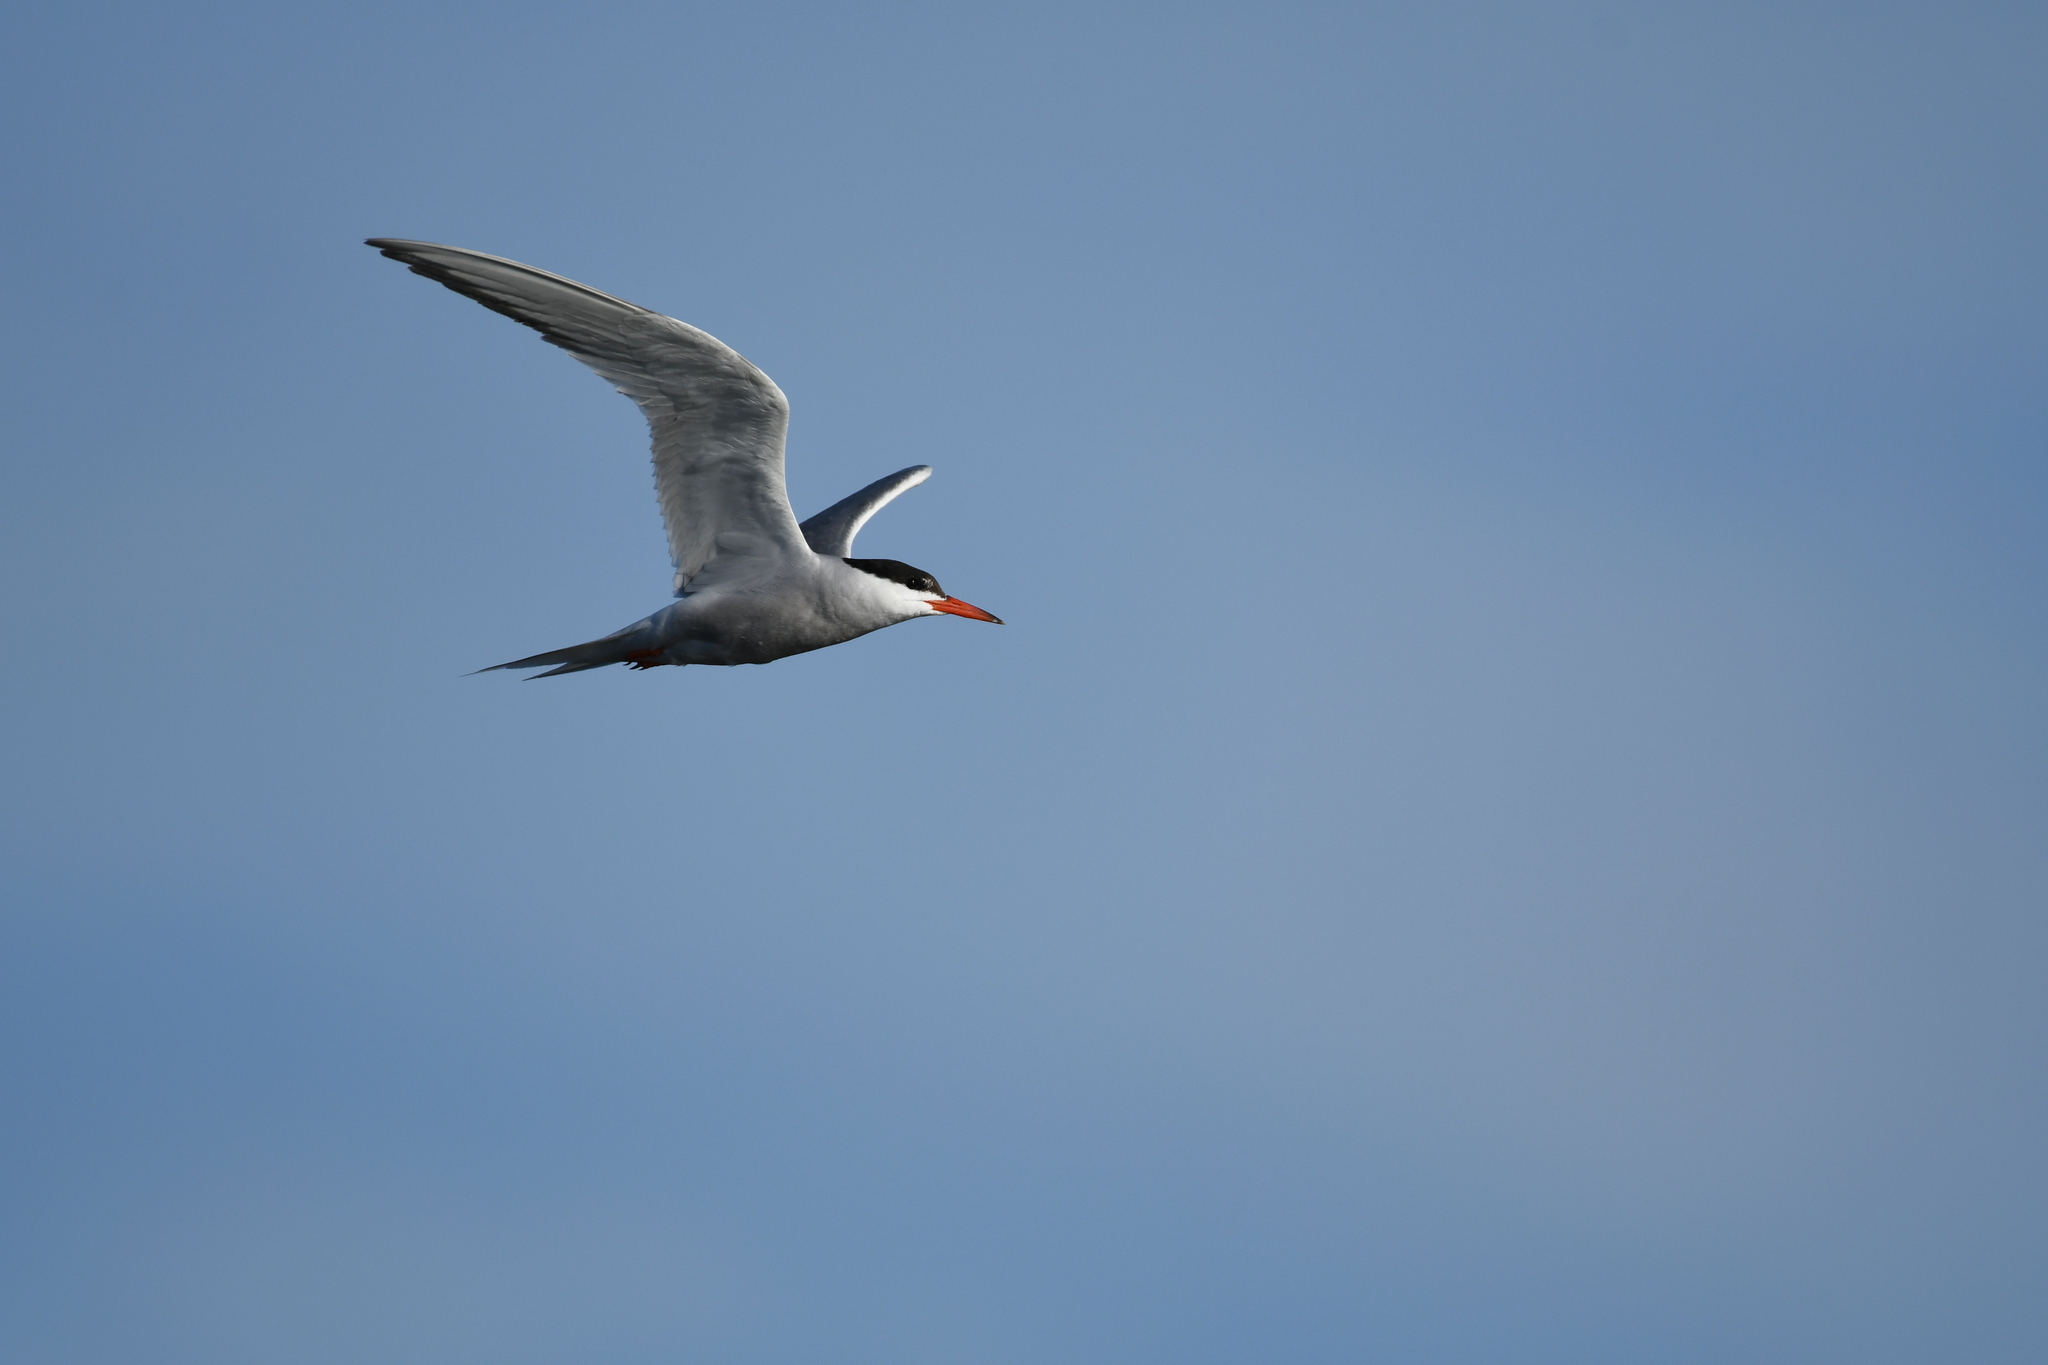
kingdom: Animalia
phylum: Chordata
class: Aves
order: Charadriiformes
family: Laridae
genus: Sterna
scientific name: Sterna hirundo
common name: Common tern
